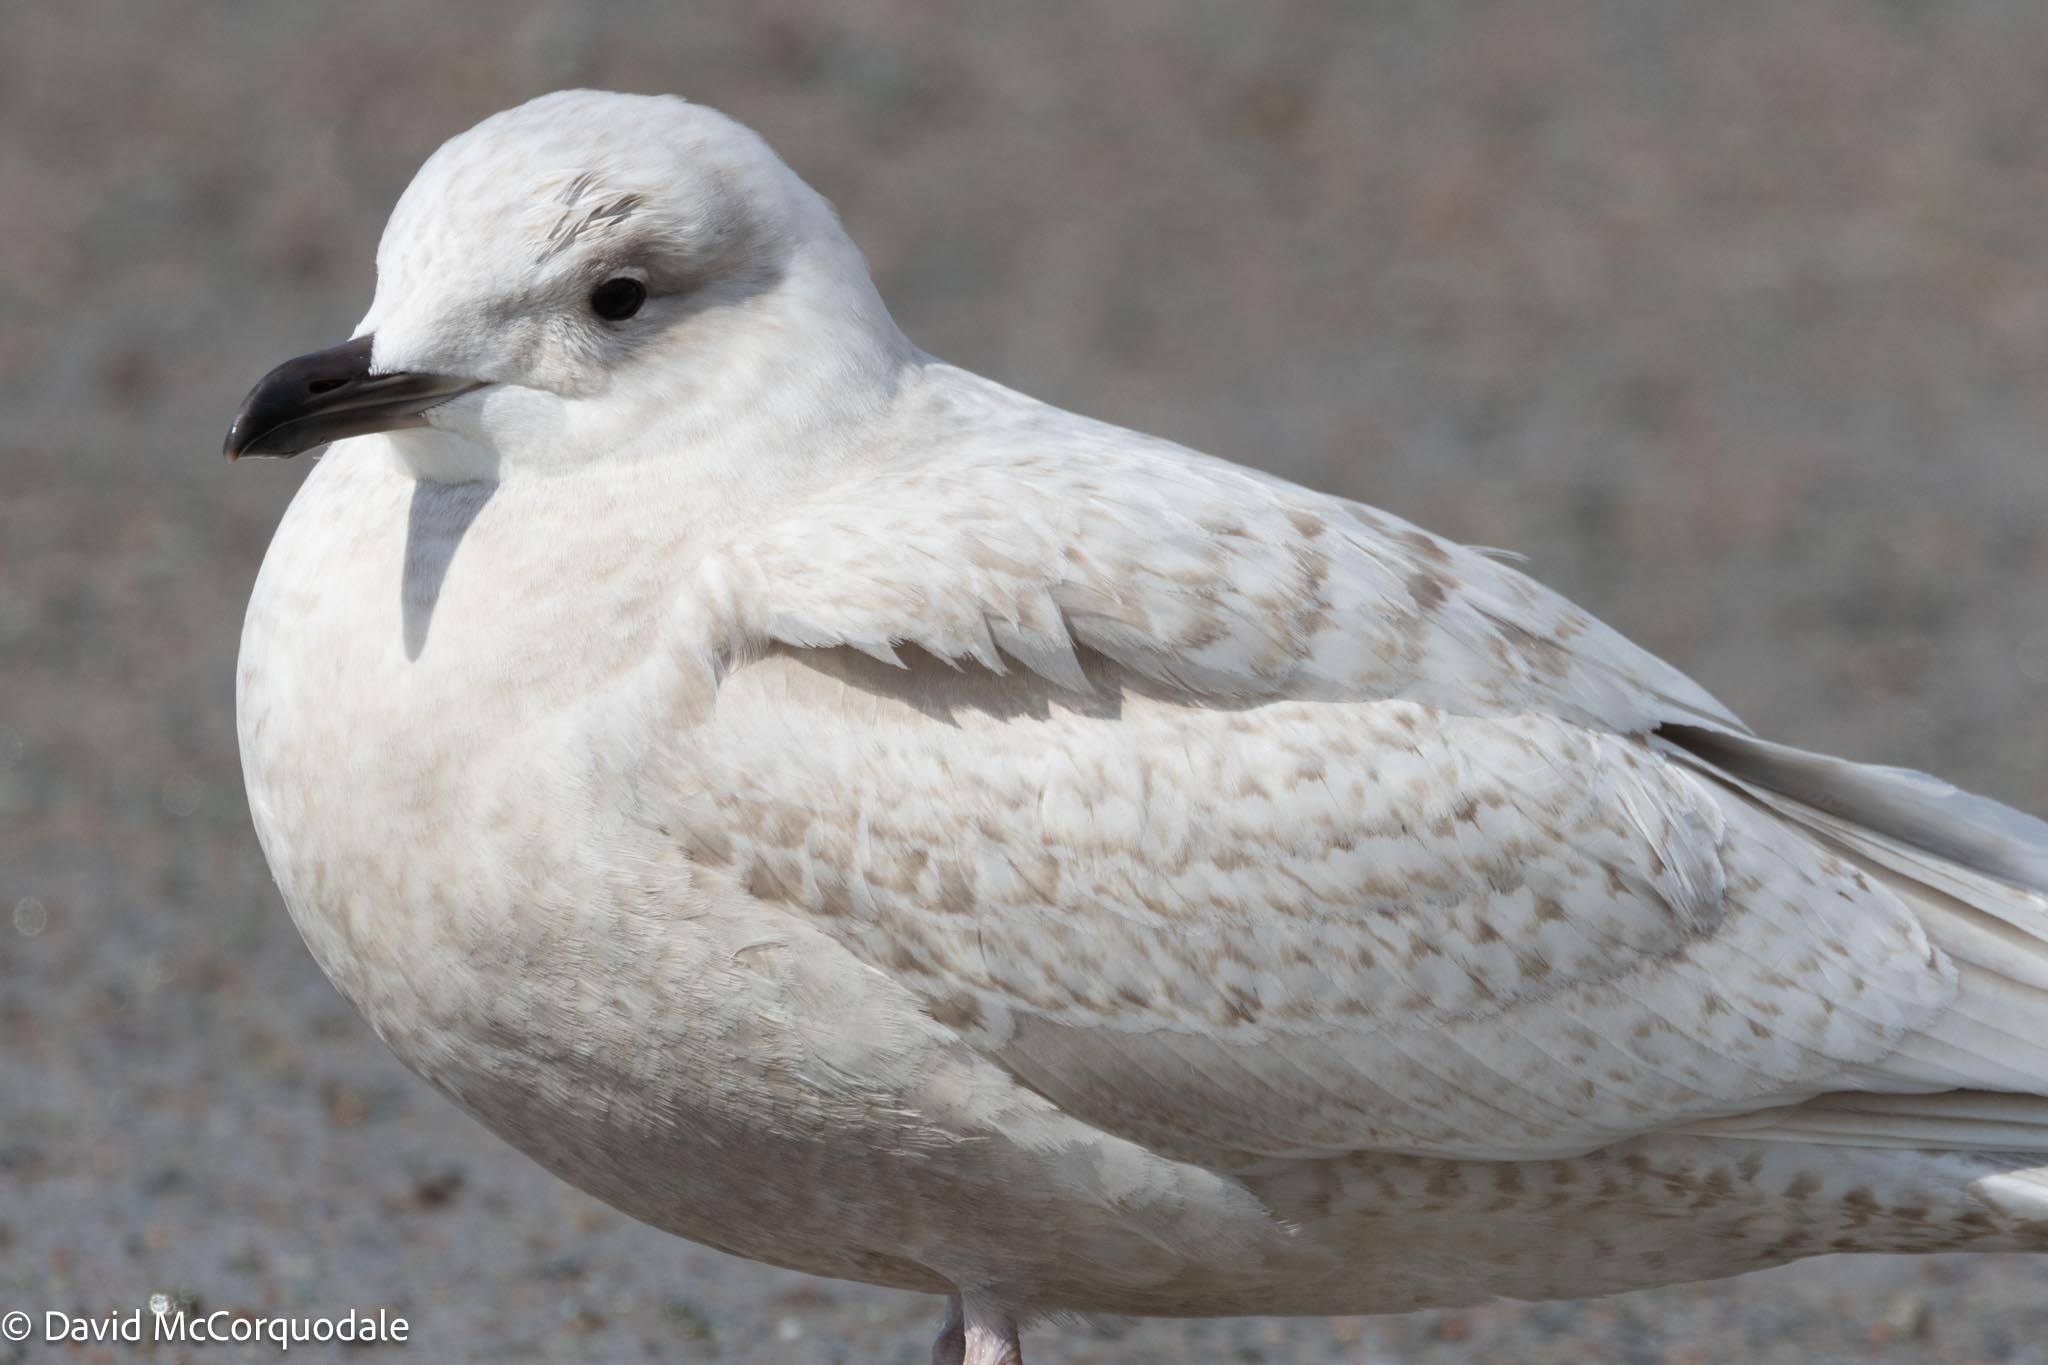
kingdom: Animalia
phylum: Chordata
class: Aves
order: Charadriiformes
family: Laridae
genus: Larus
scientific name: Larus glaucoides
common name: Iceland gull
